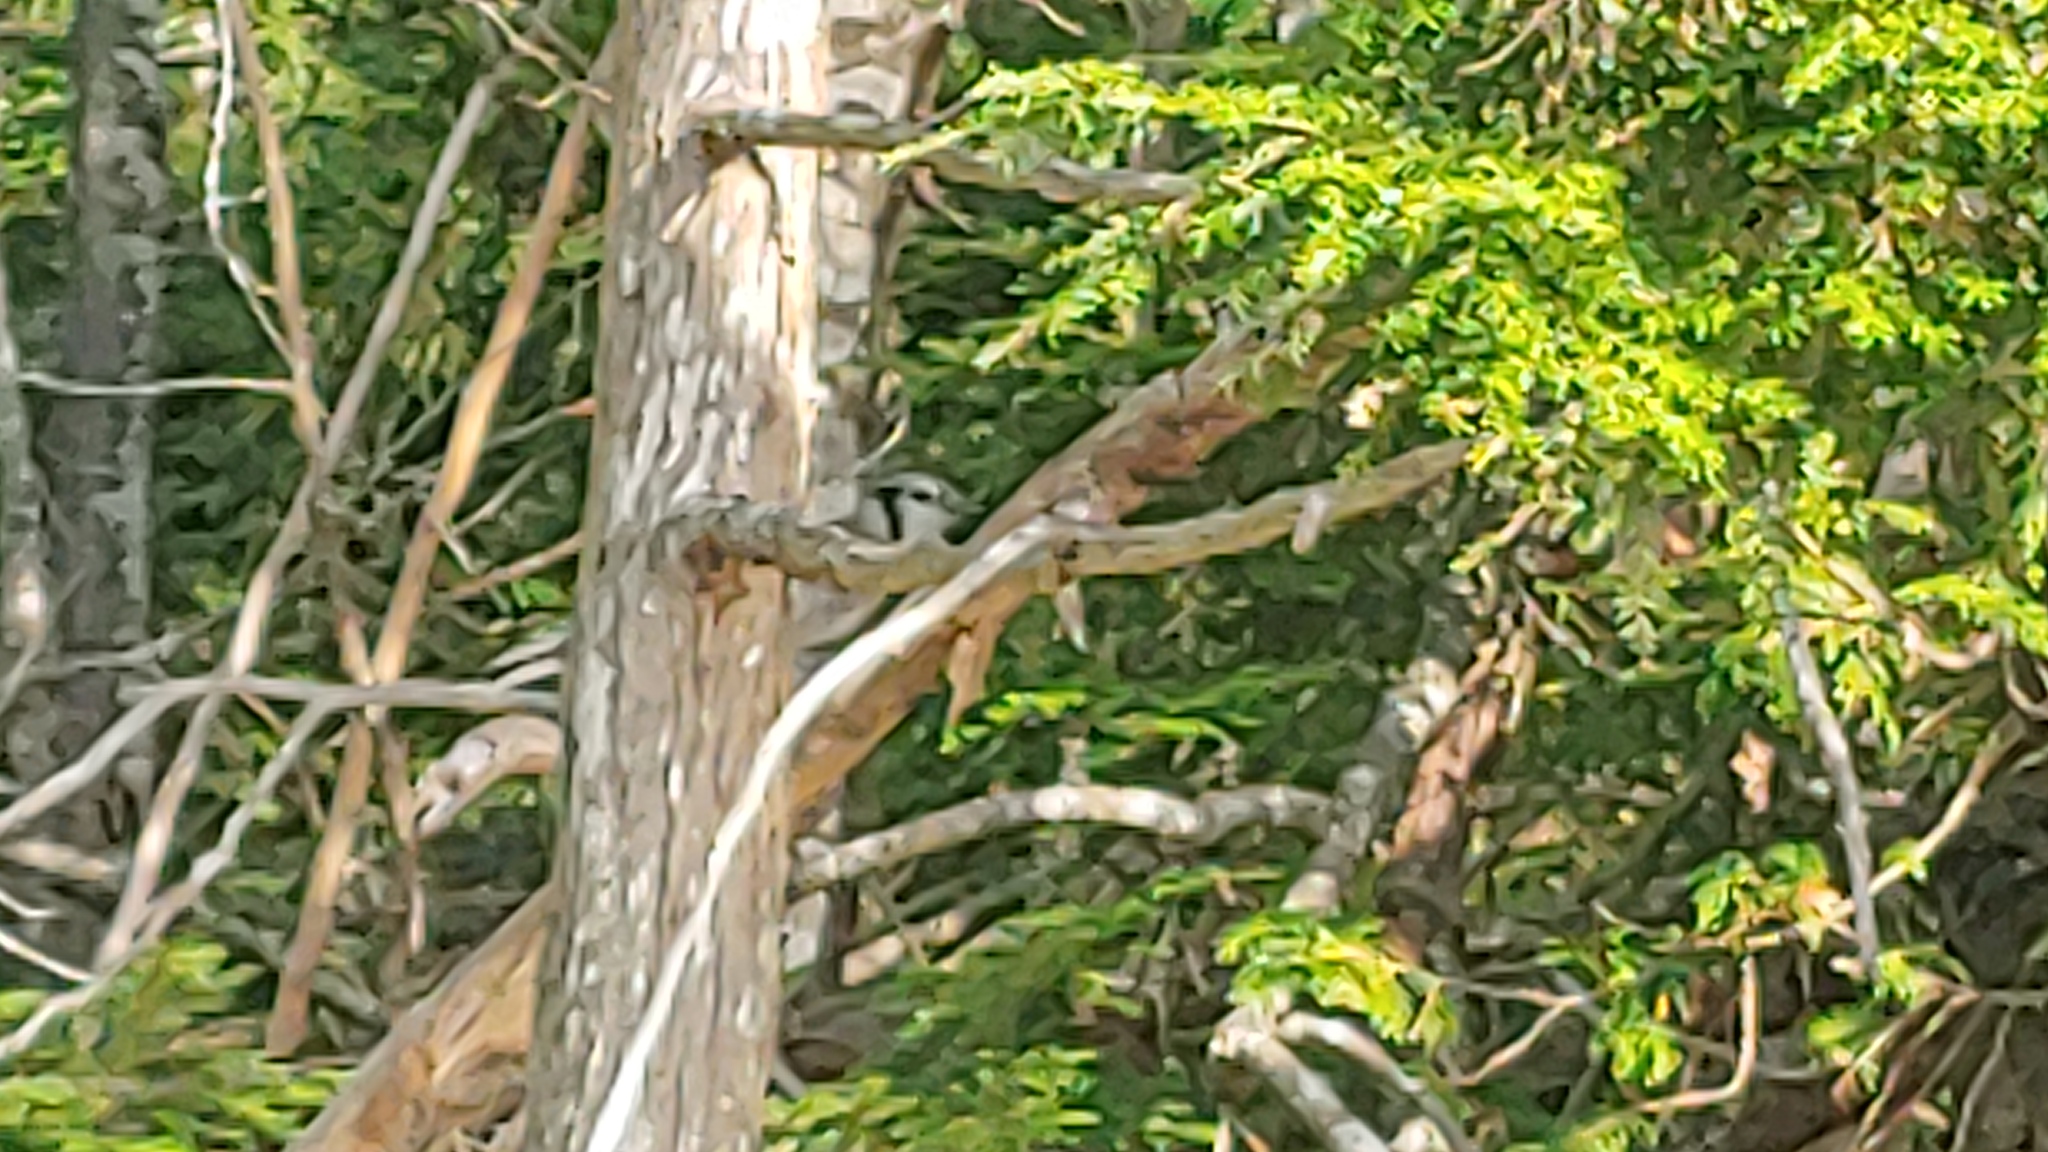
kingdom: Animalia
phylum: Chordata
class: Aves
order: Passeriformes
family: Corvidae
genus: Cyanocitta
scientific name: Cyanocitta cristata
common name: Blue jay
